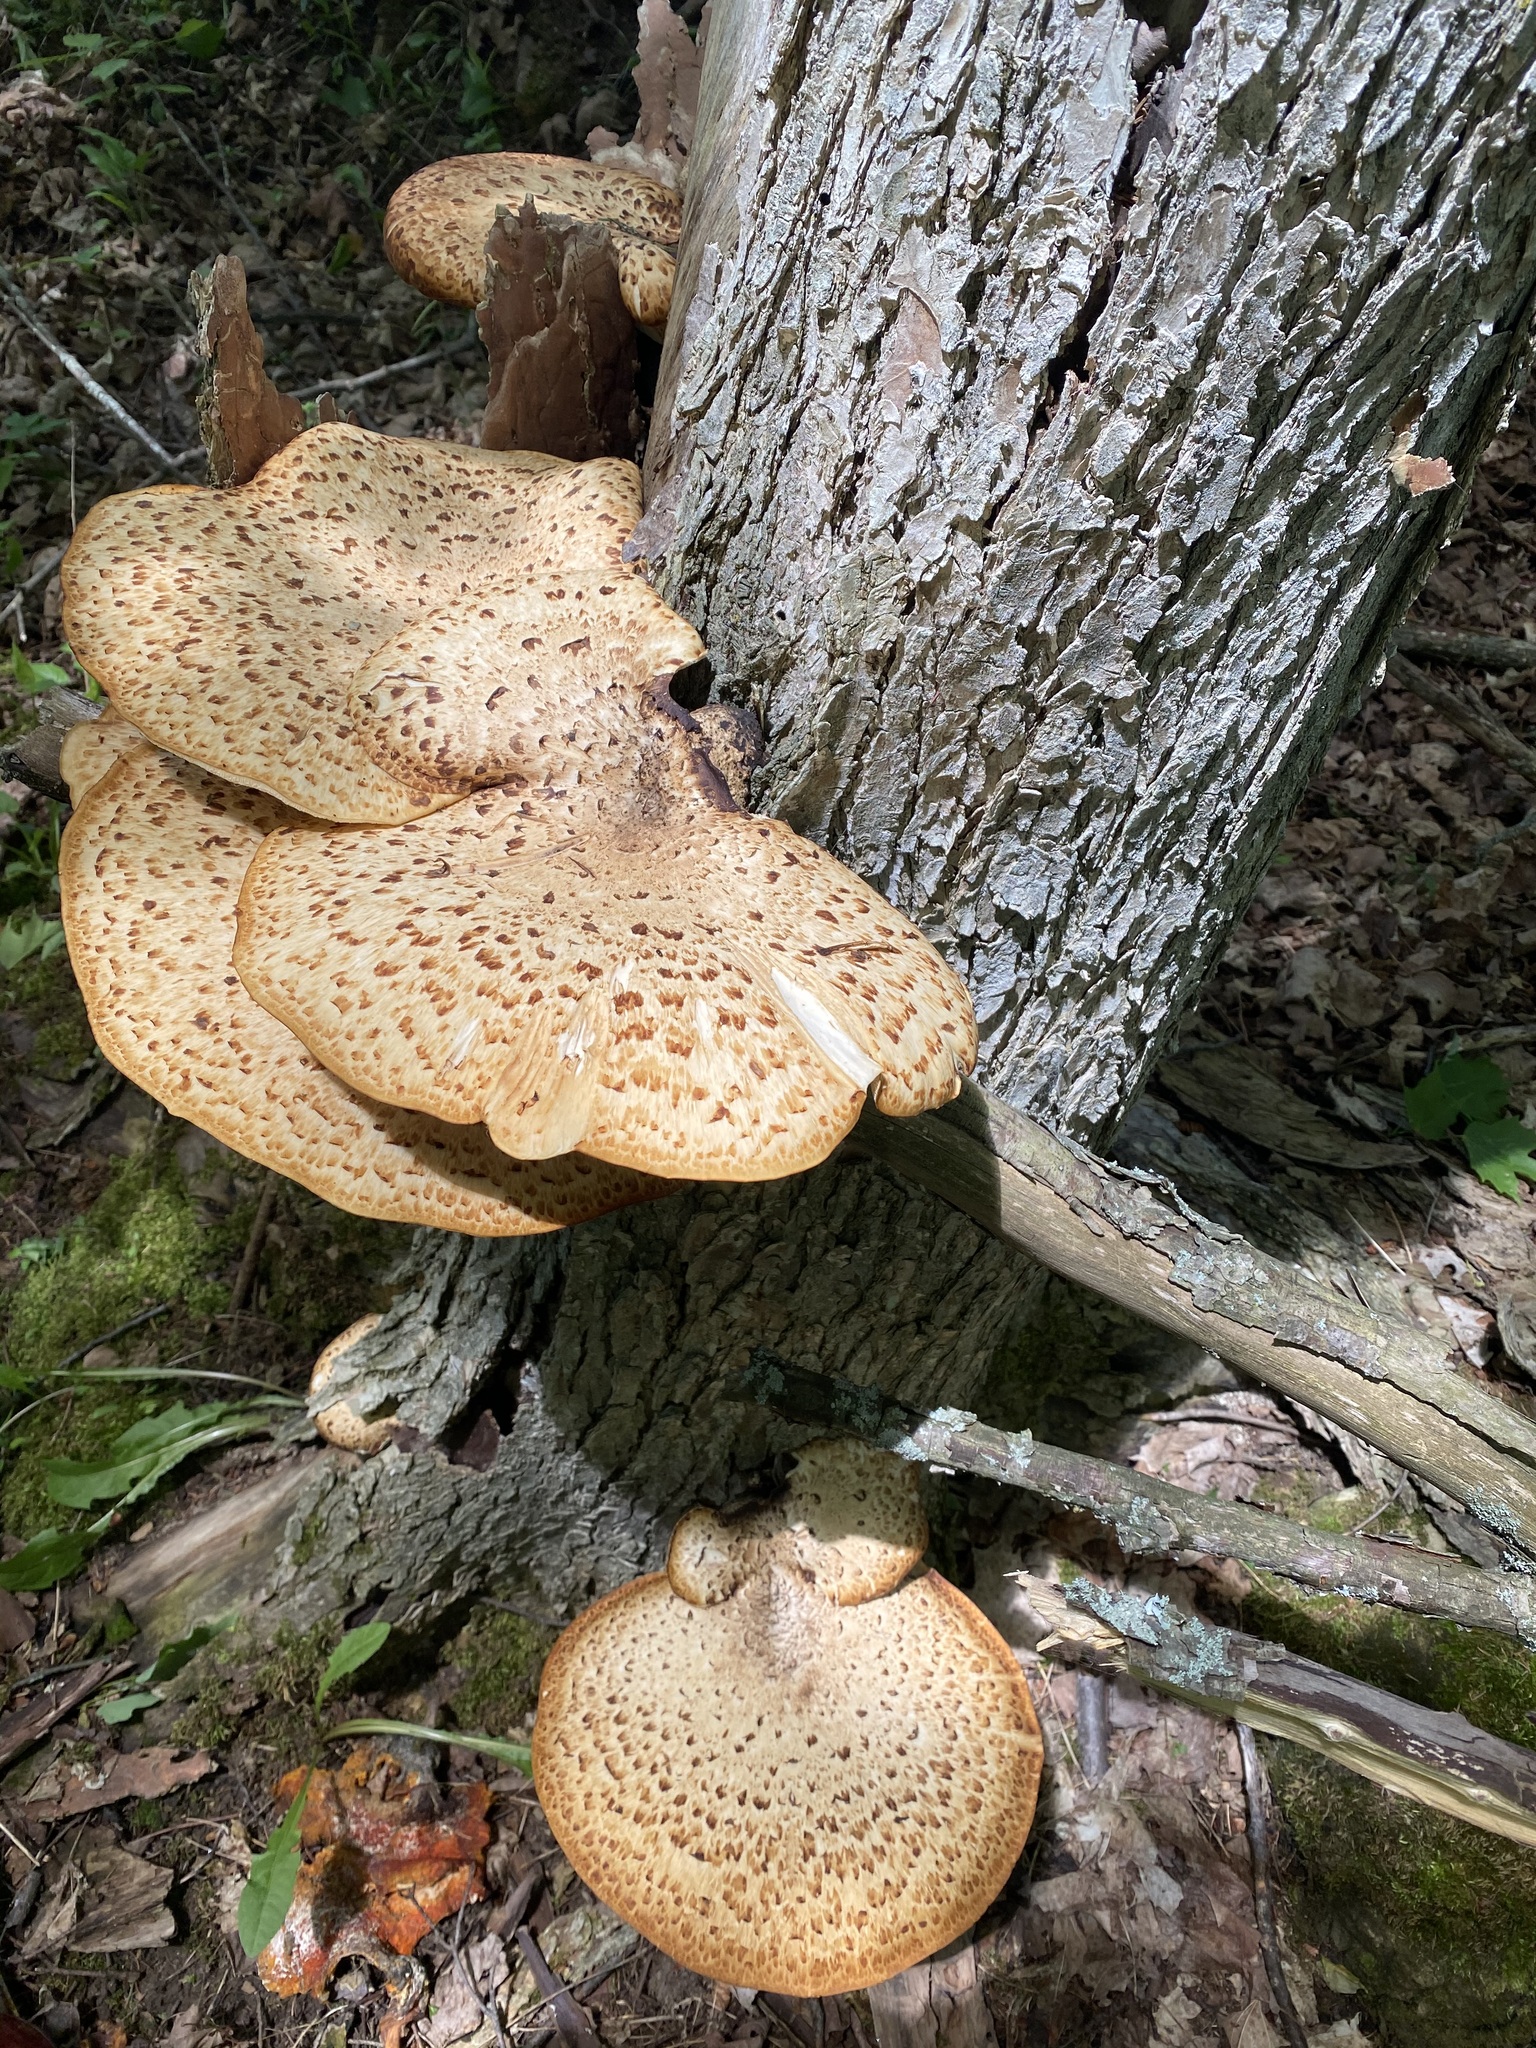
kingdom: Fungi
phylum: Basidiomycota
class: Agaricomycetes
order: Polyporales
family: Polyporaceae
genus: Cerioporus
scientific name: Cerioporus squamosus
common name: Dryad's saddle
